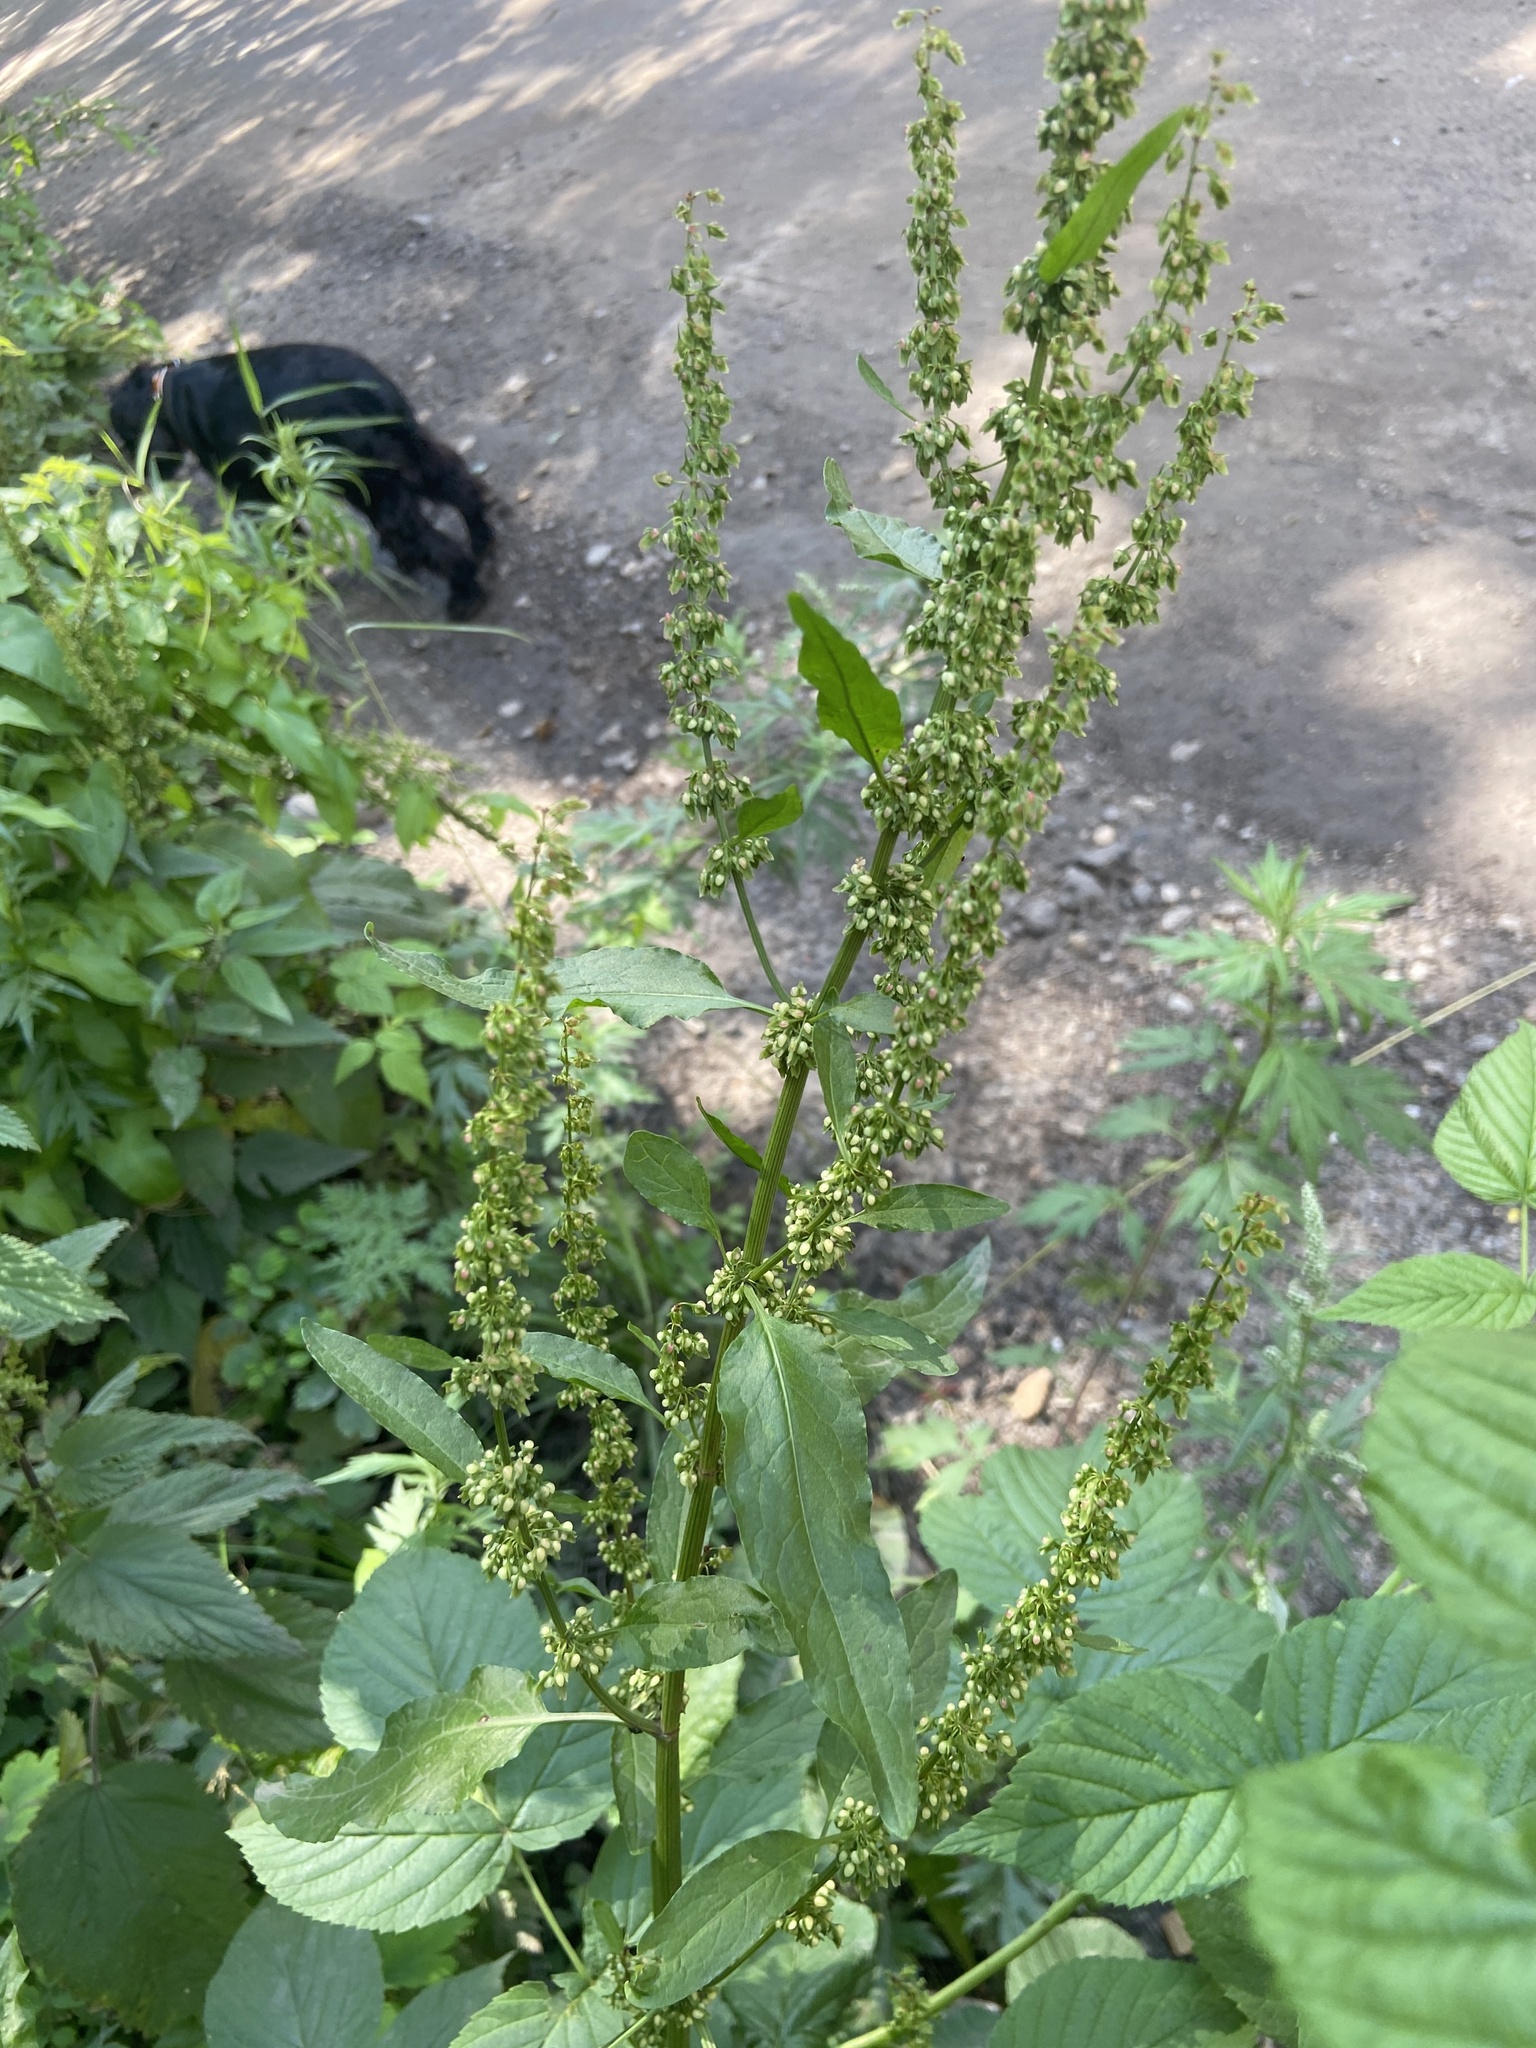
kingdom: Plantae
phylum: Tracheophyta
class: Magnoliopsida
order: Caryophyllales
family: Polygonaceae
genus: Rumex
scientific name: Rumex obtusifolius
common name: Bitter dock
